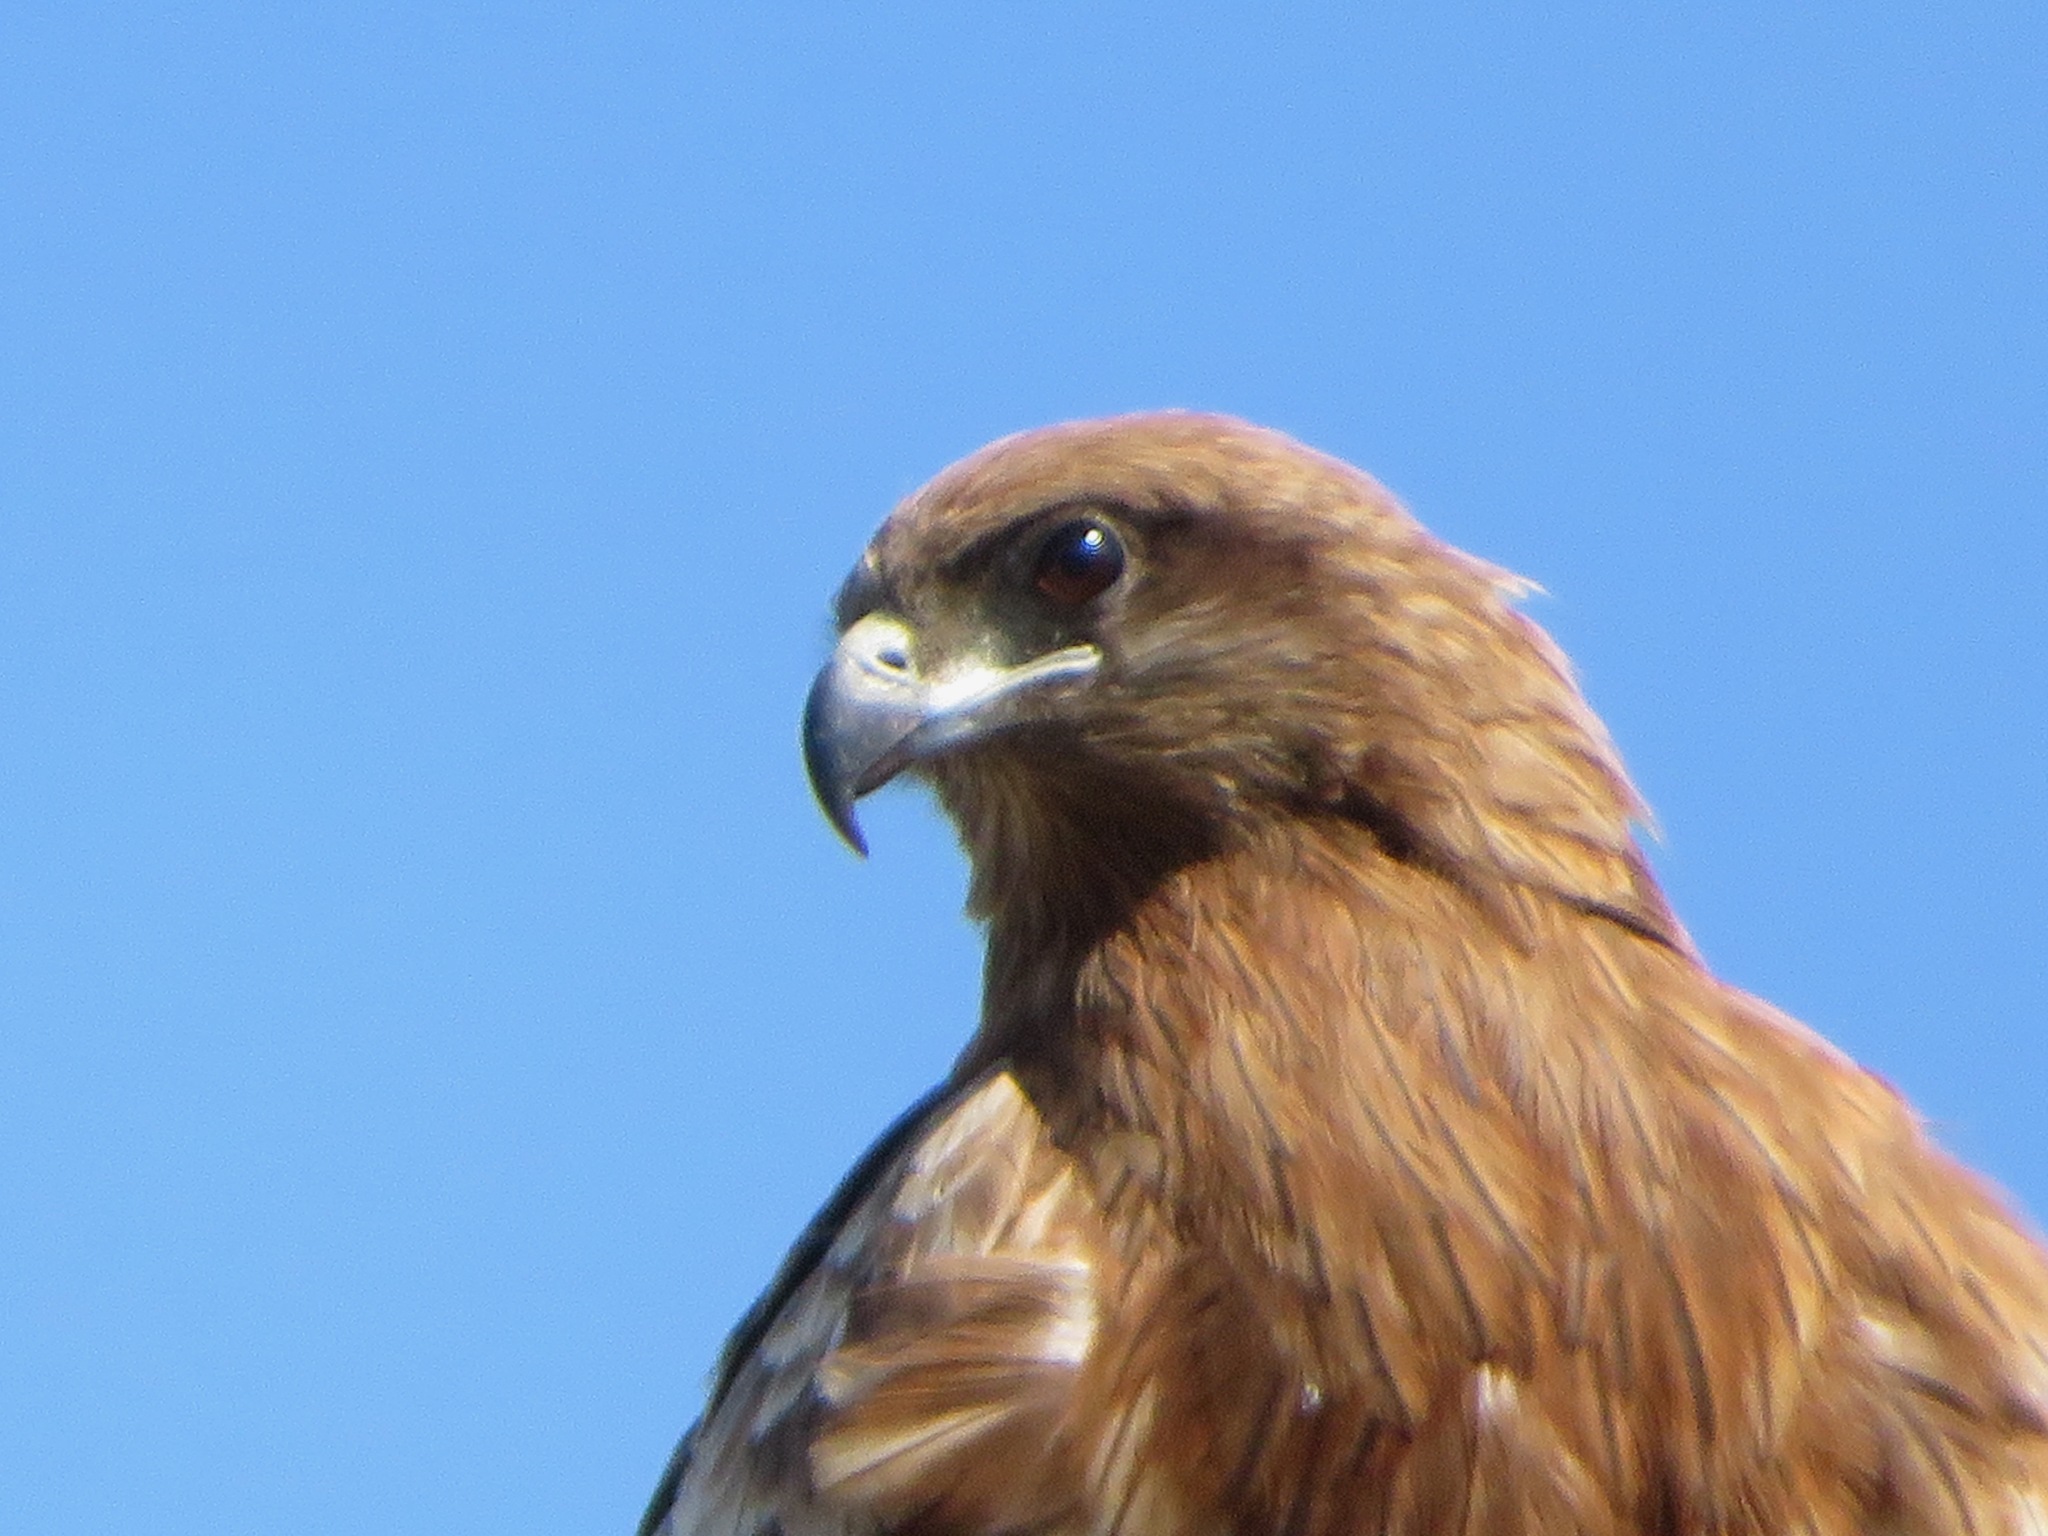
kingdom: Animalia
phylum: Chordata
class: Aves
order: Accipitriformes
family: Accipitridae
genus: Milvus
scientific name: Milvus migrans
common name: Black kite
